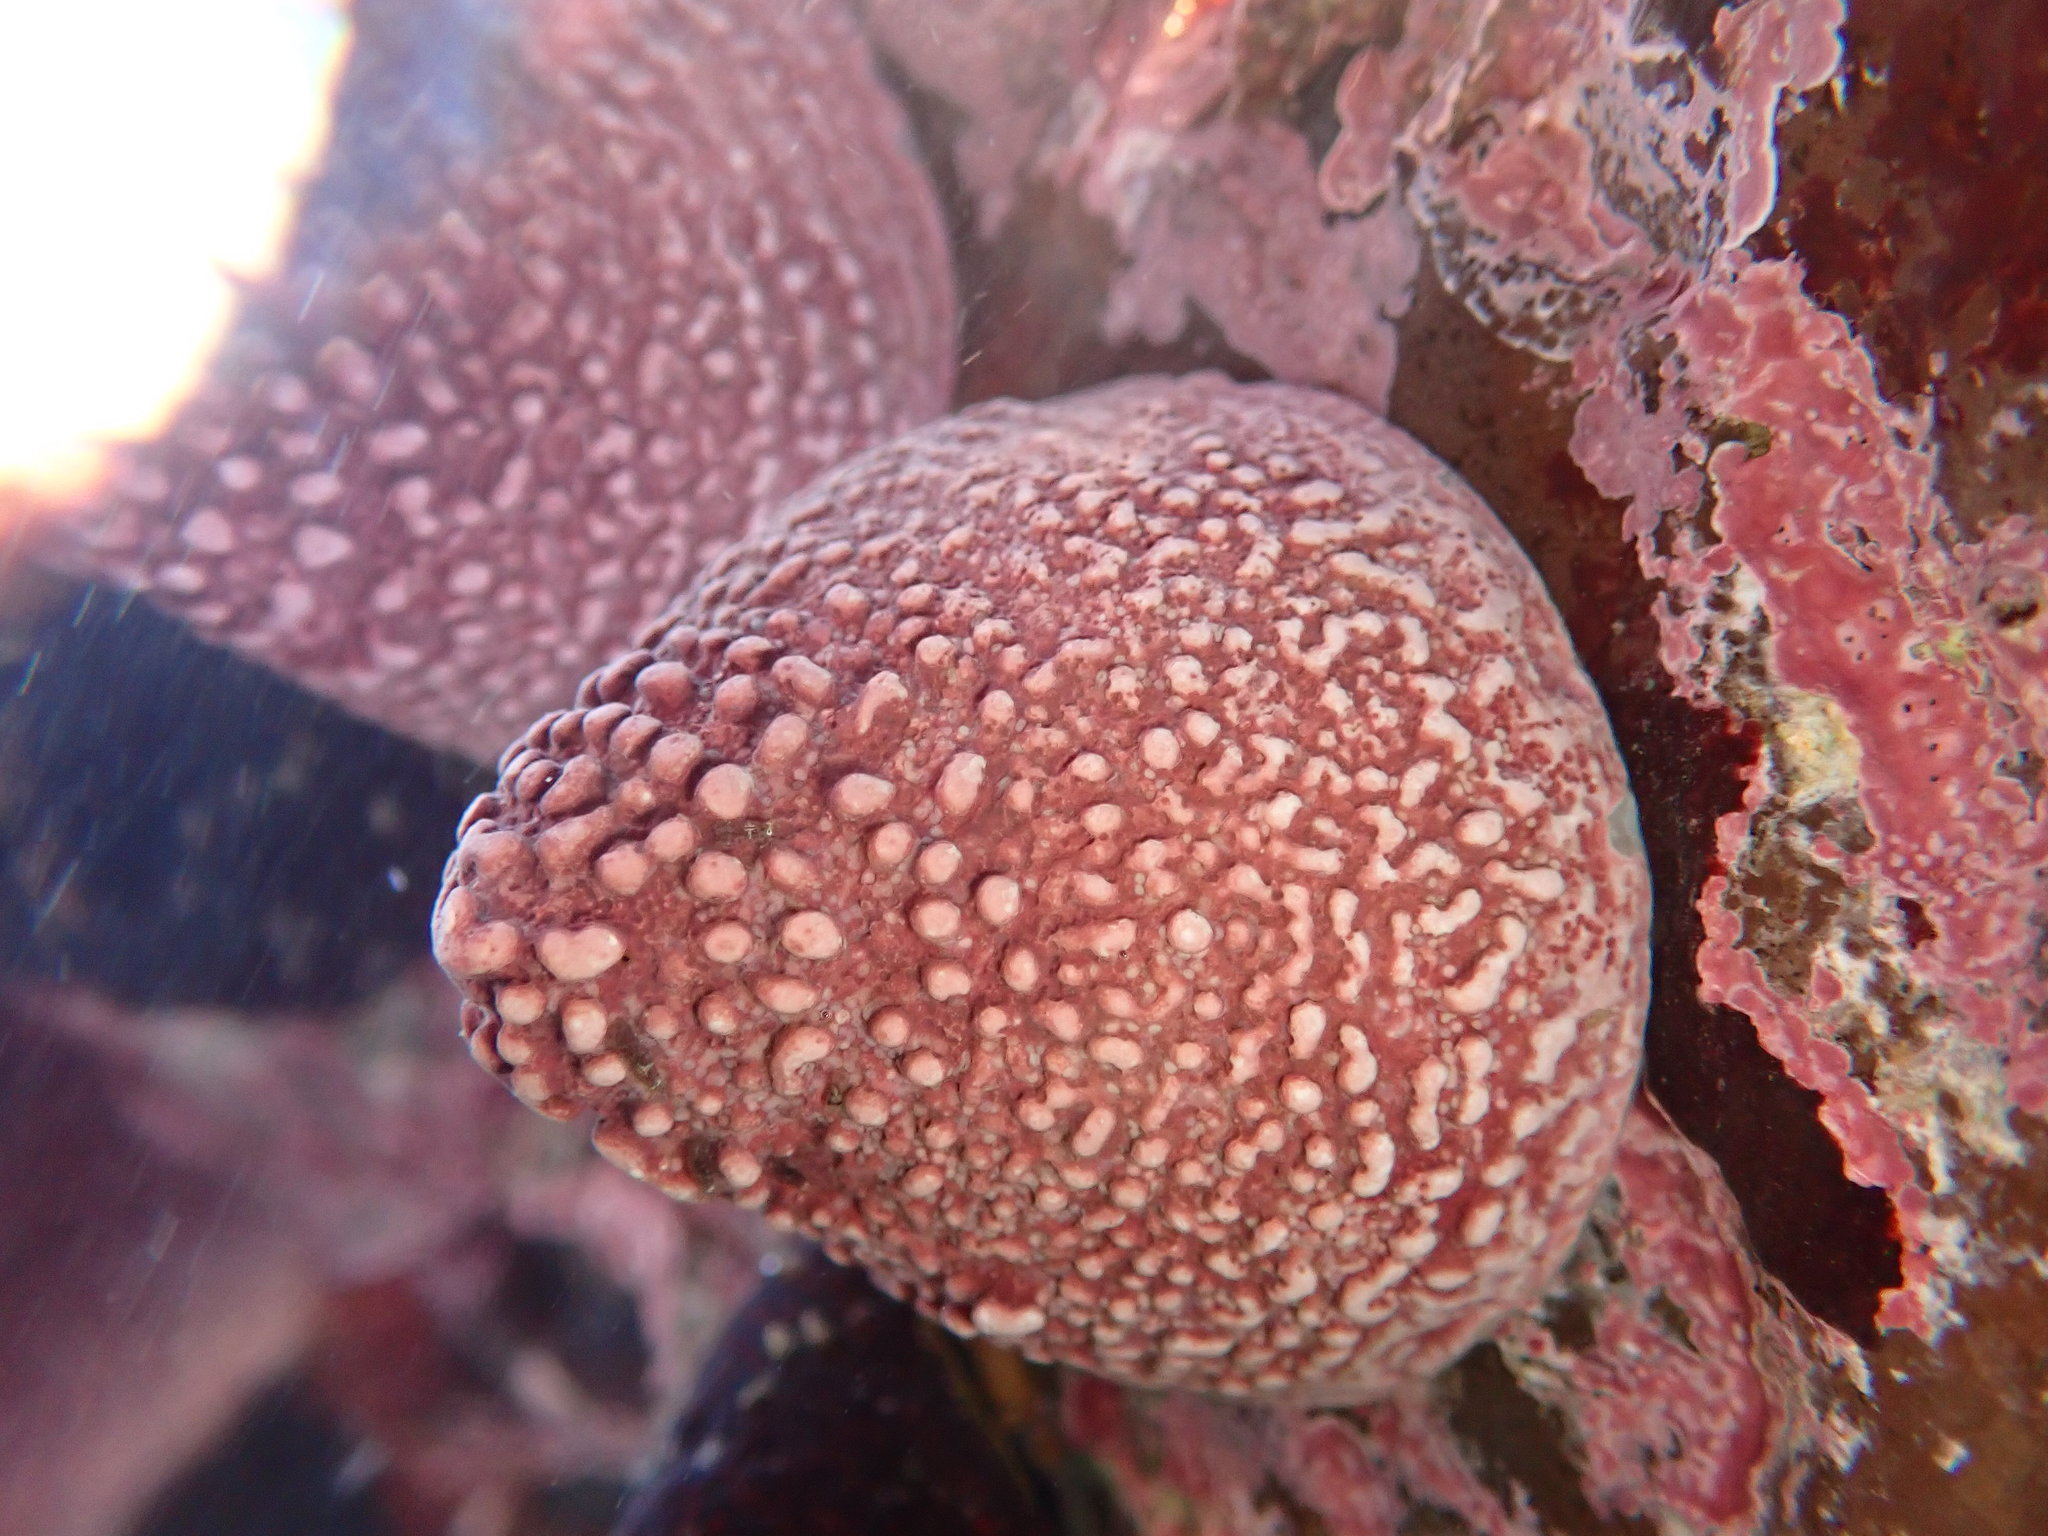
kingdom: Animalia
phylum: Mollusca
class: Gastropoda
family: Acmaeidae
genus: Acmaea
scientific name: Acmaea mitra
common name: Pacific white cap limpet
